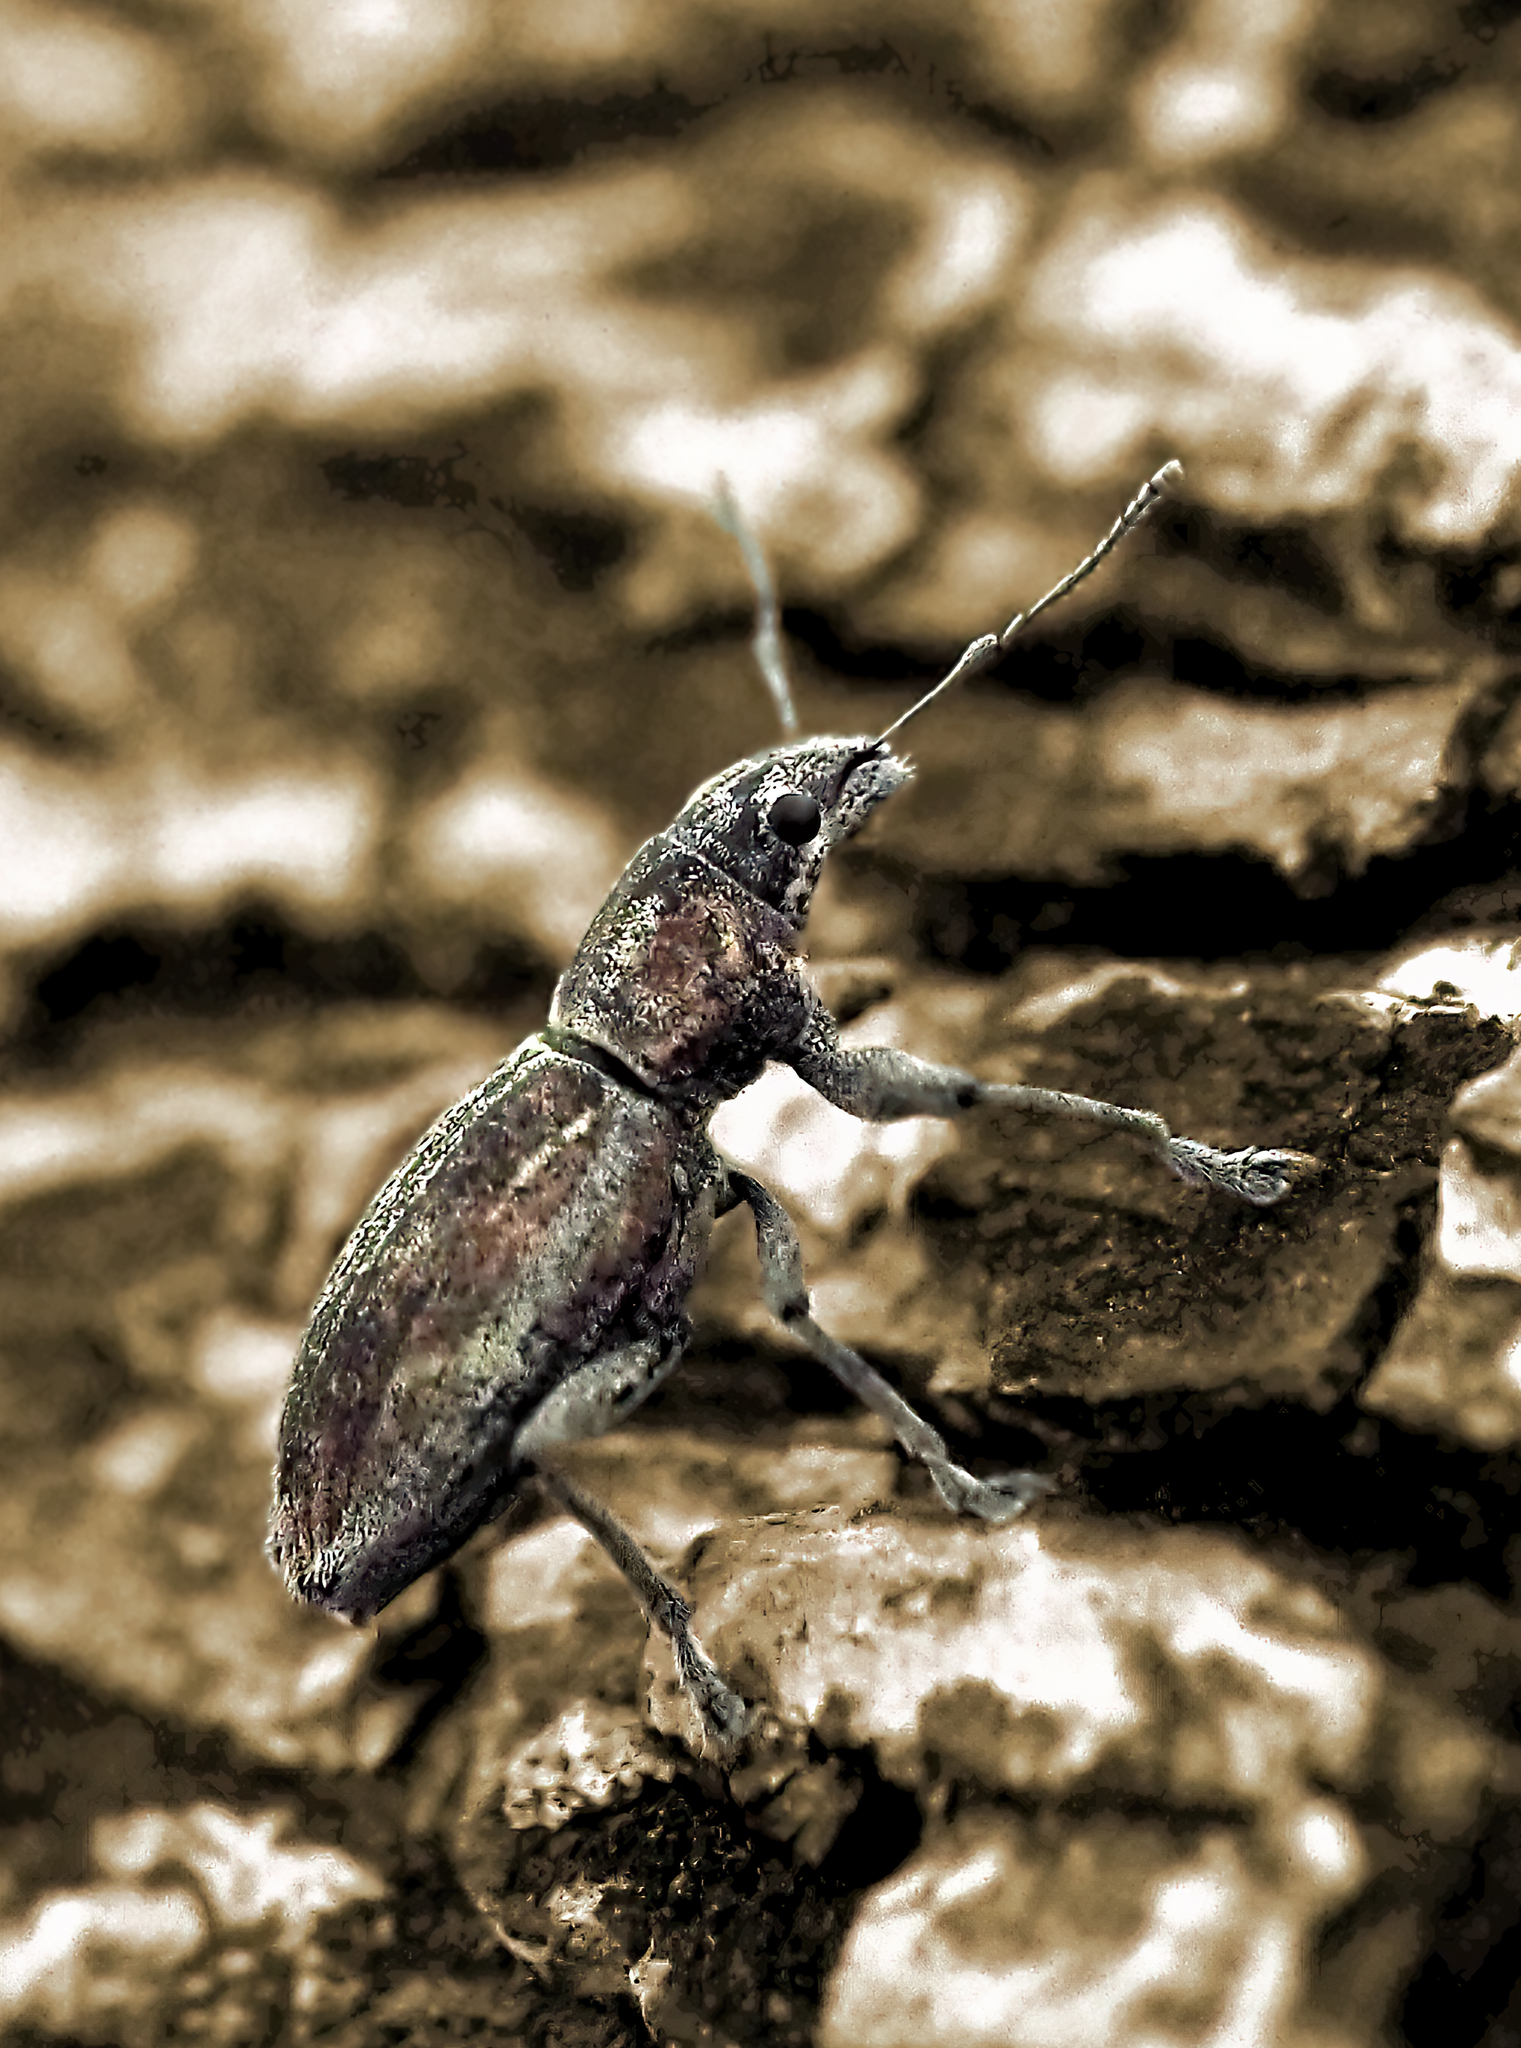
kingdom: Animalia
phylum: Arthropoda
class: Insecta
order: Coleoptera
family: Curculionidae
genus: Naupactus
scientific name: Naupactus xanthographus
